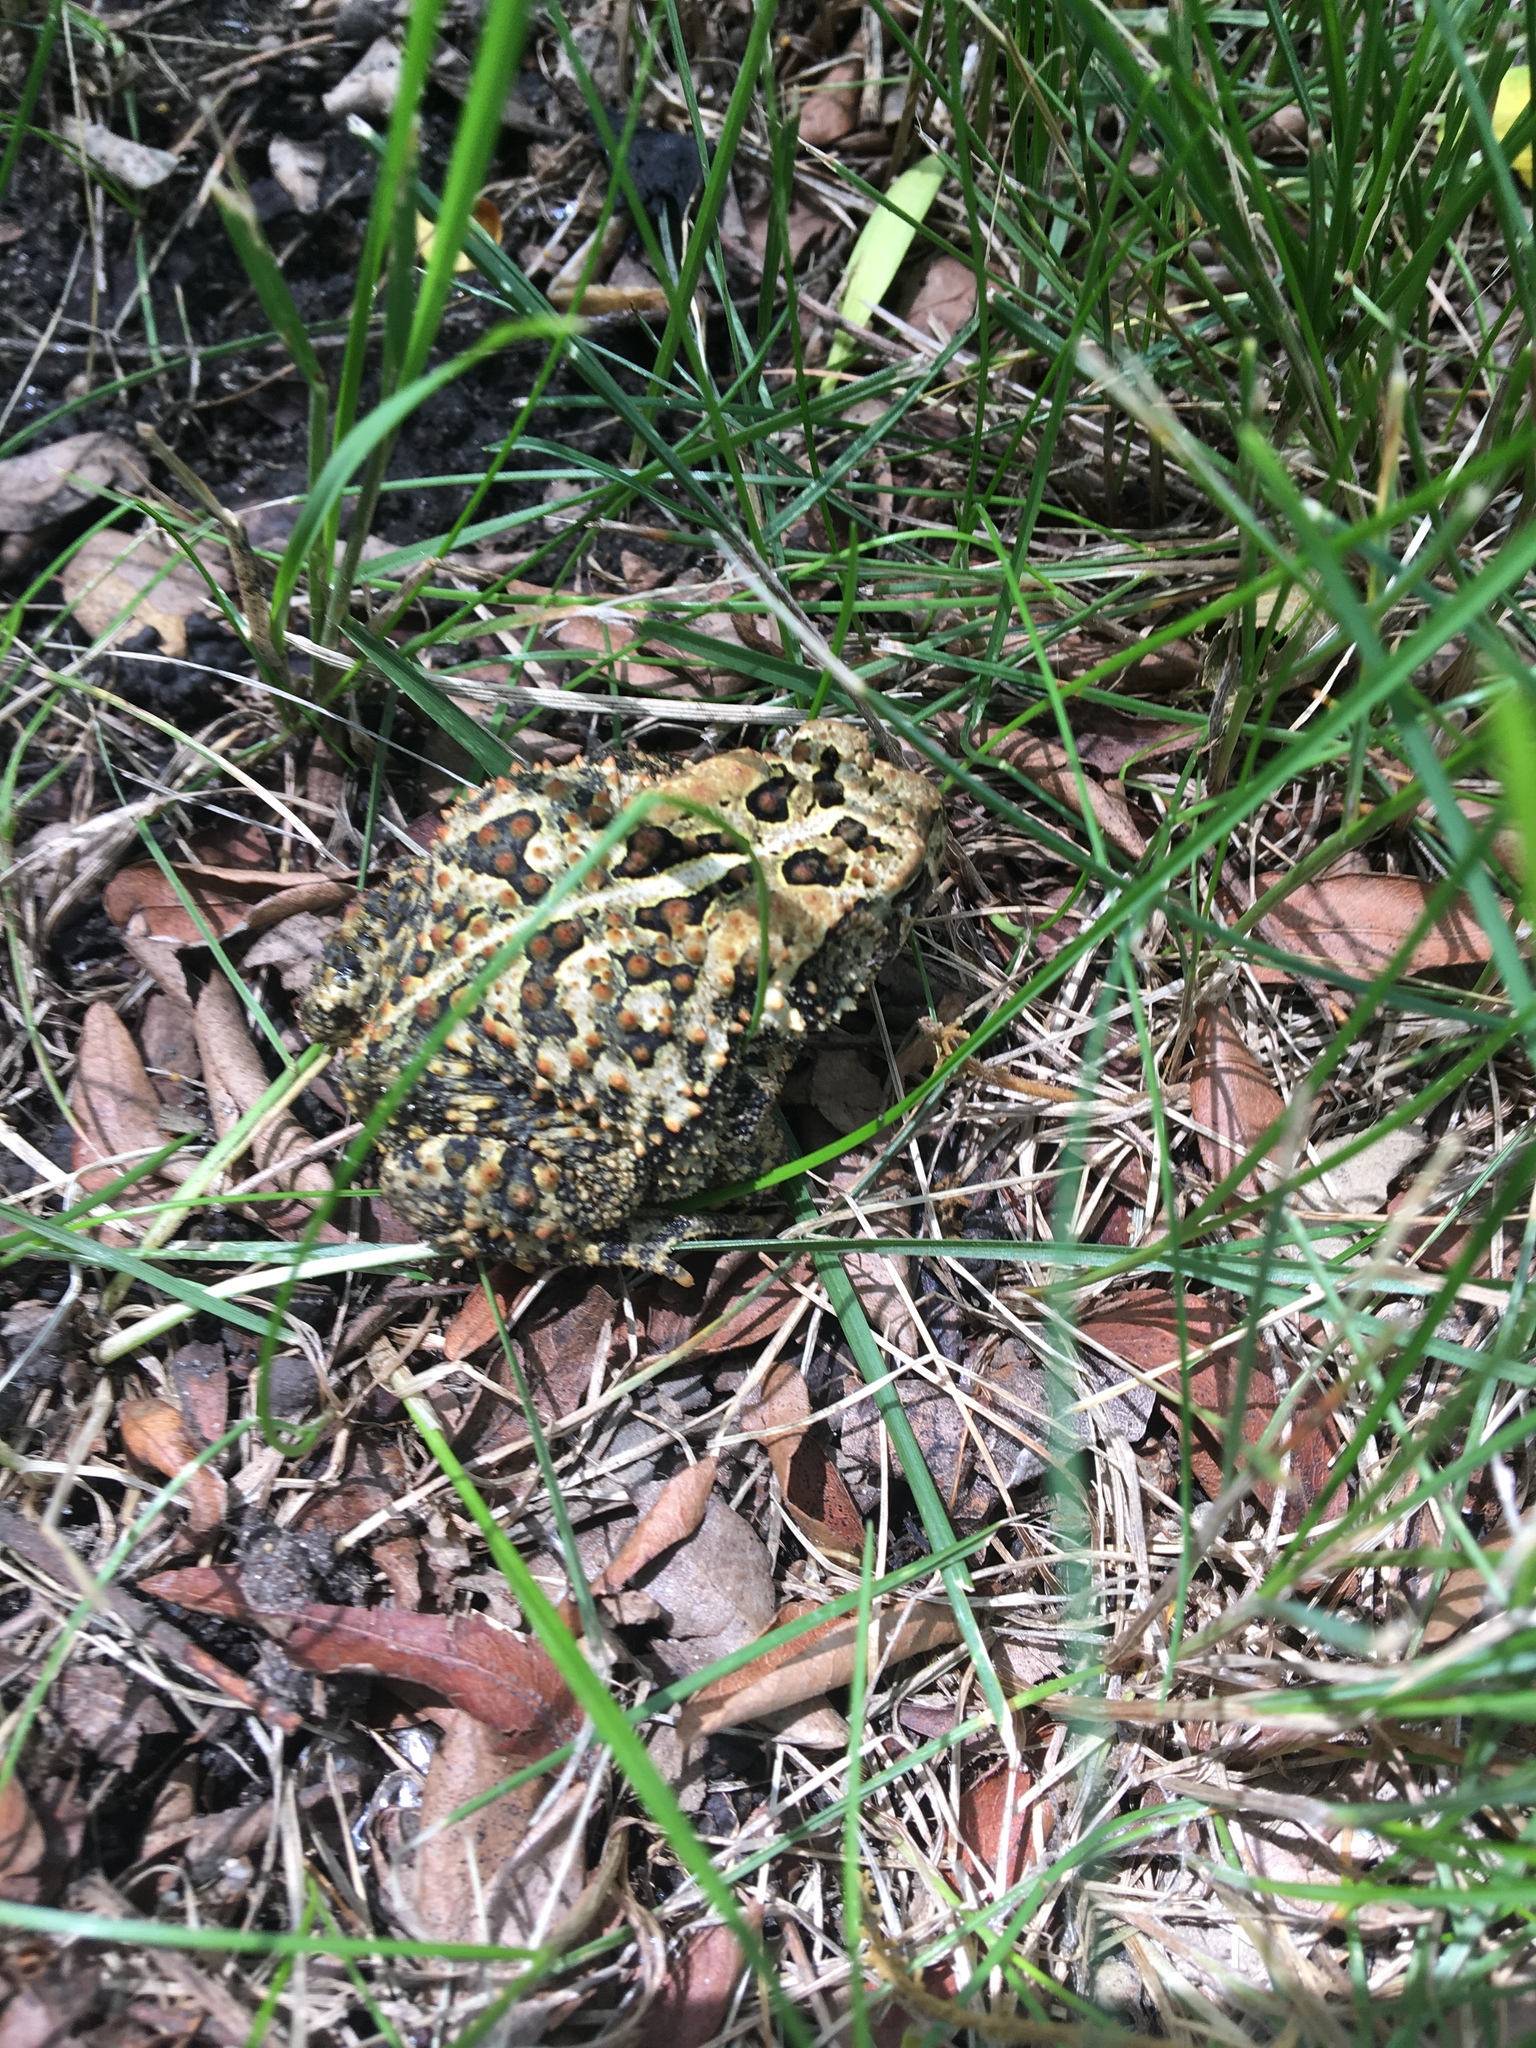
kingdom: Animalia
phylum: Chordata
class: Amphibia
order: Anura
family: Bufonidae
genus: Anaxyrus
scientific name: Anaxyrus americanus
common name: American toad
